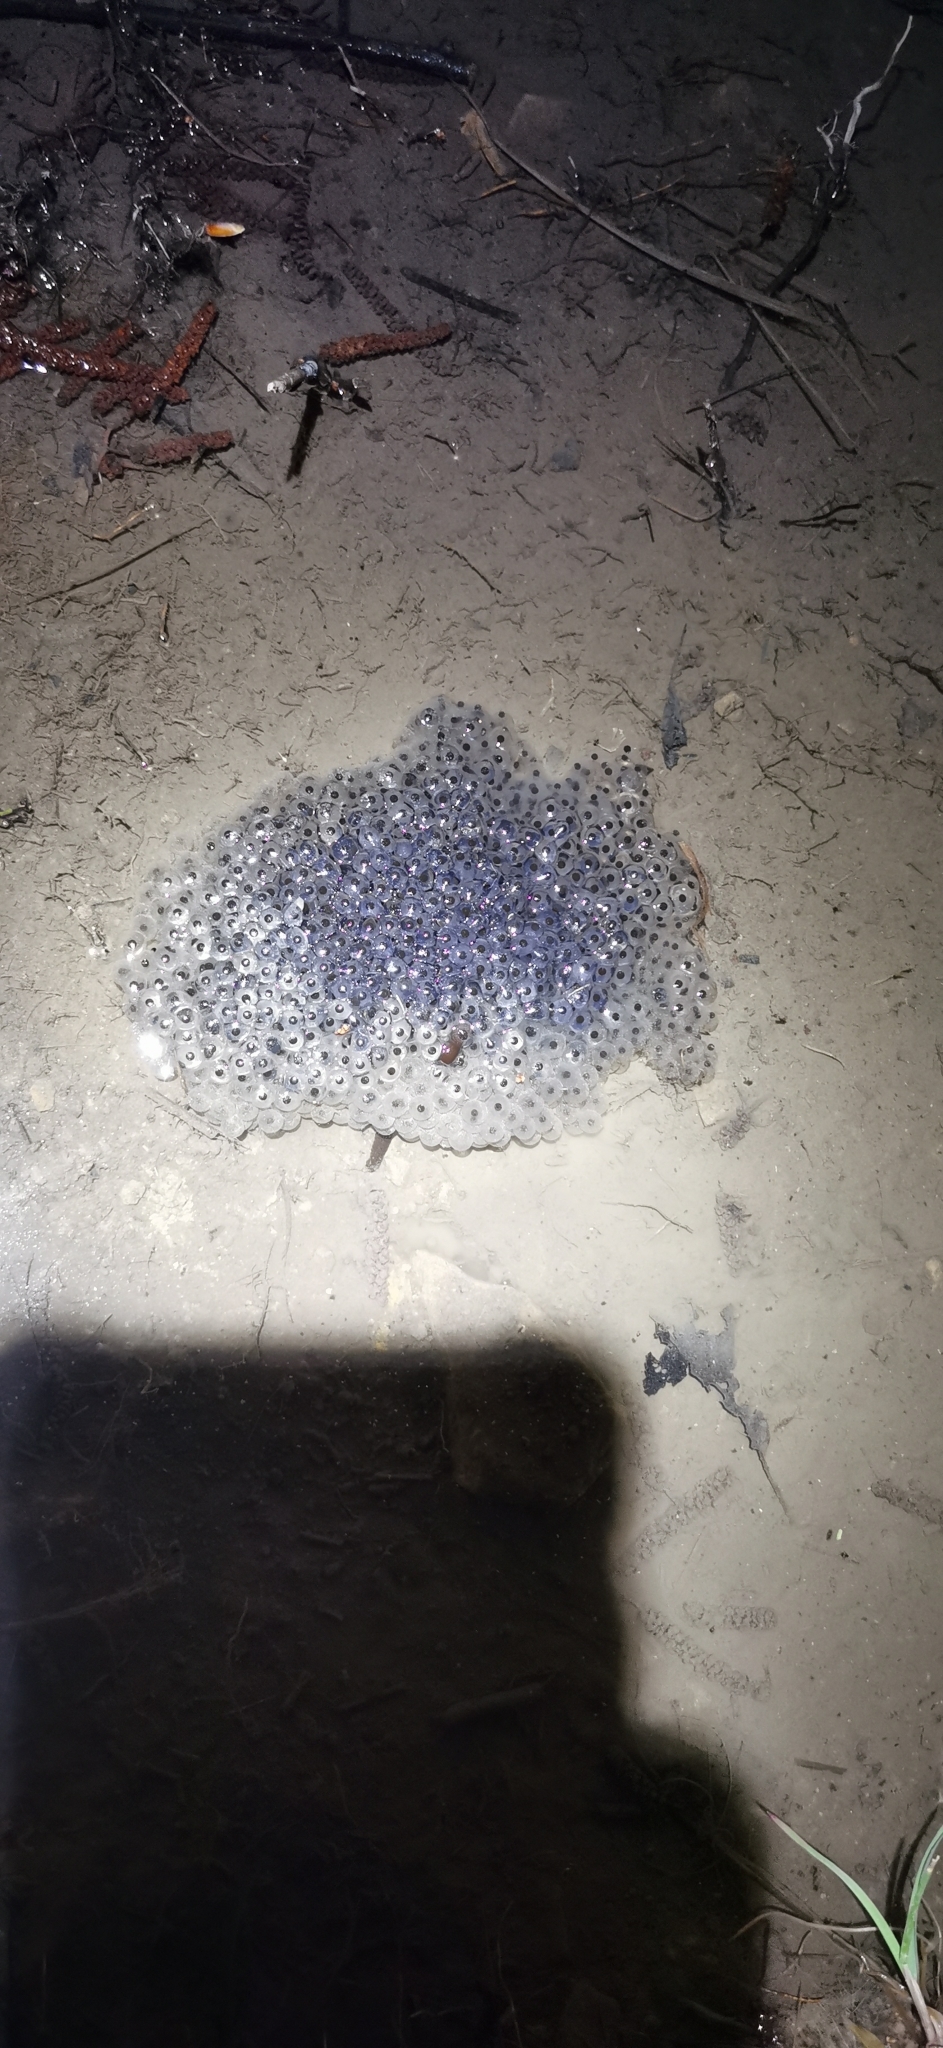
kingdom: Animalia
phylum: Chordata
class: Amphibia
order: Anura
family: Ranidae
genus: Rana
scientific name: Rana temporaria
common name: Common frog
